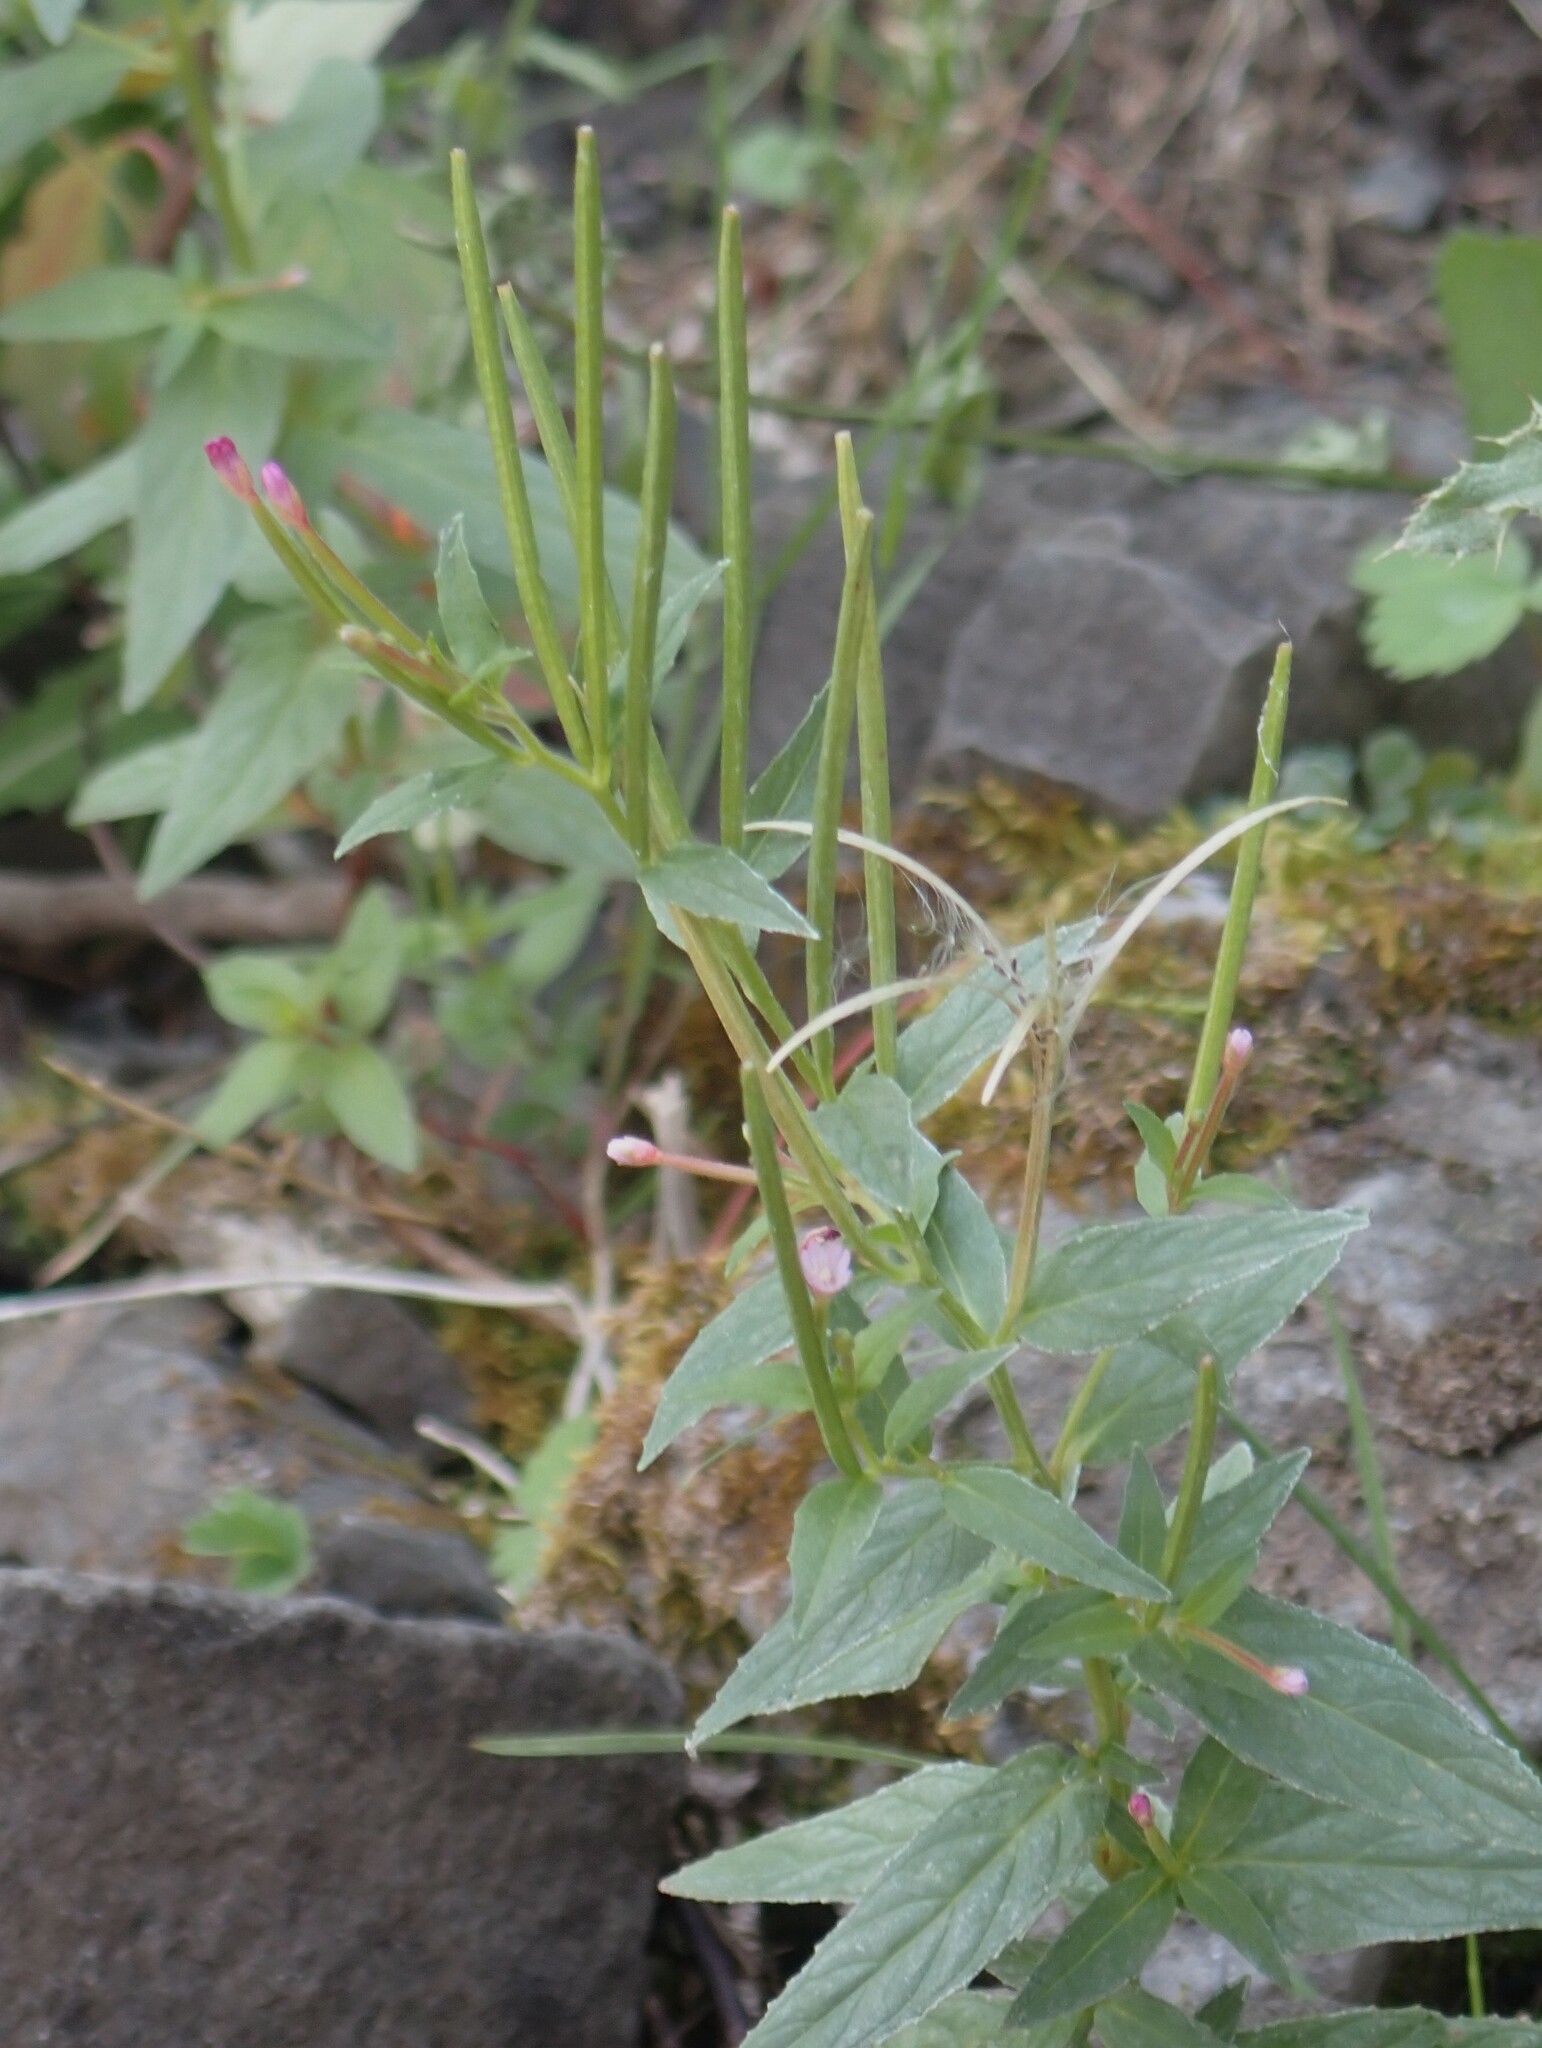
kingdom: Plantae
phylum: Tracheophyta
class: Magnoliopsida
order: Myrtales
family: Onagraceae
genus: Epilobium
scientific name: Epilobium ciliatum
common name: American willowherb
